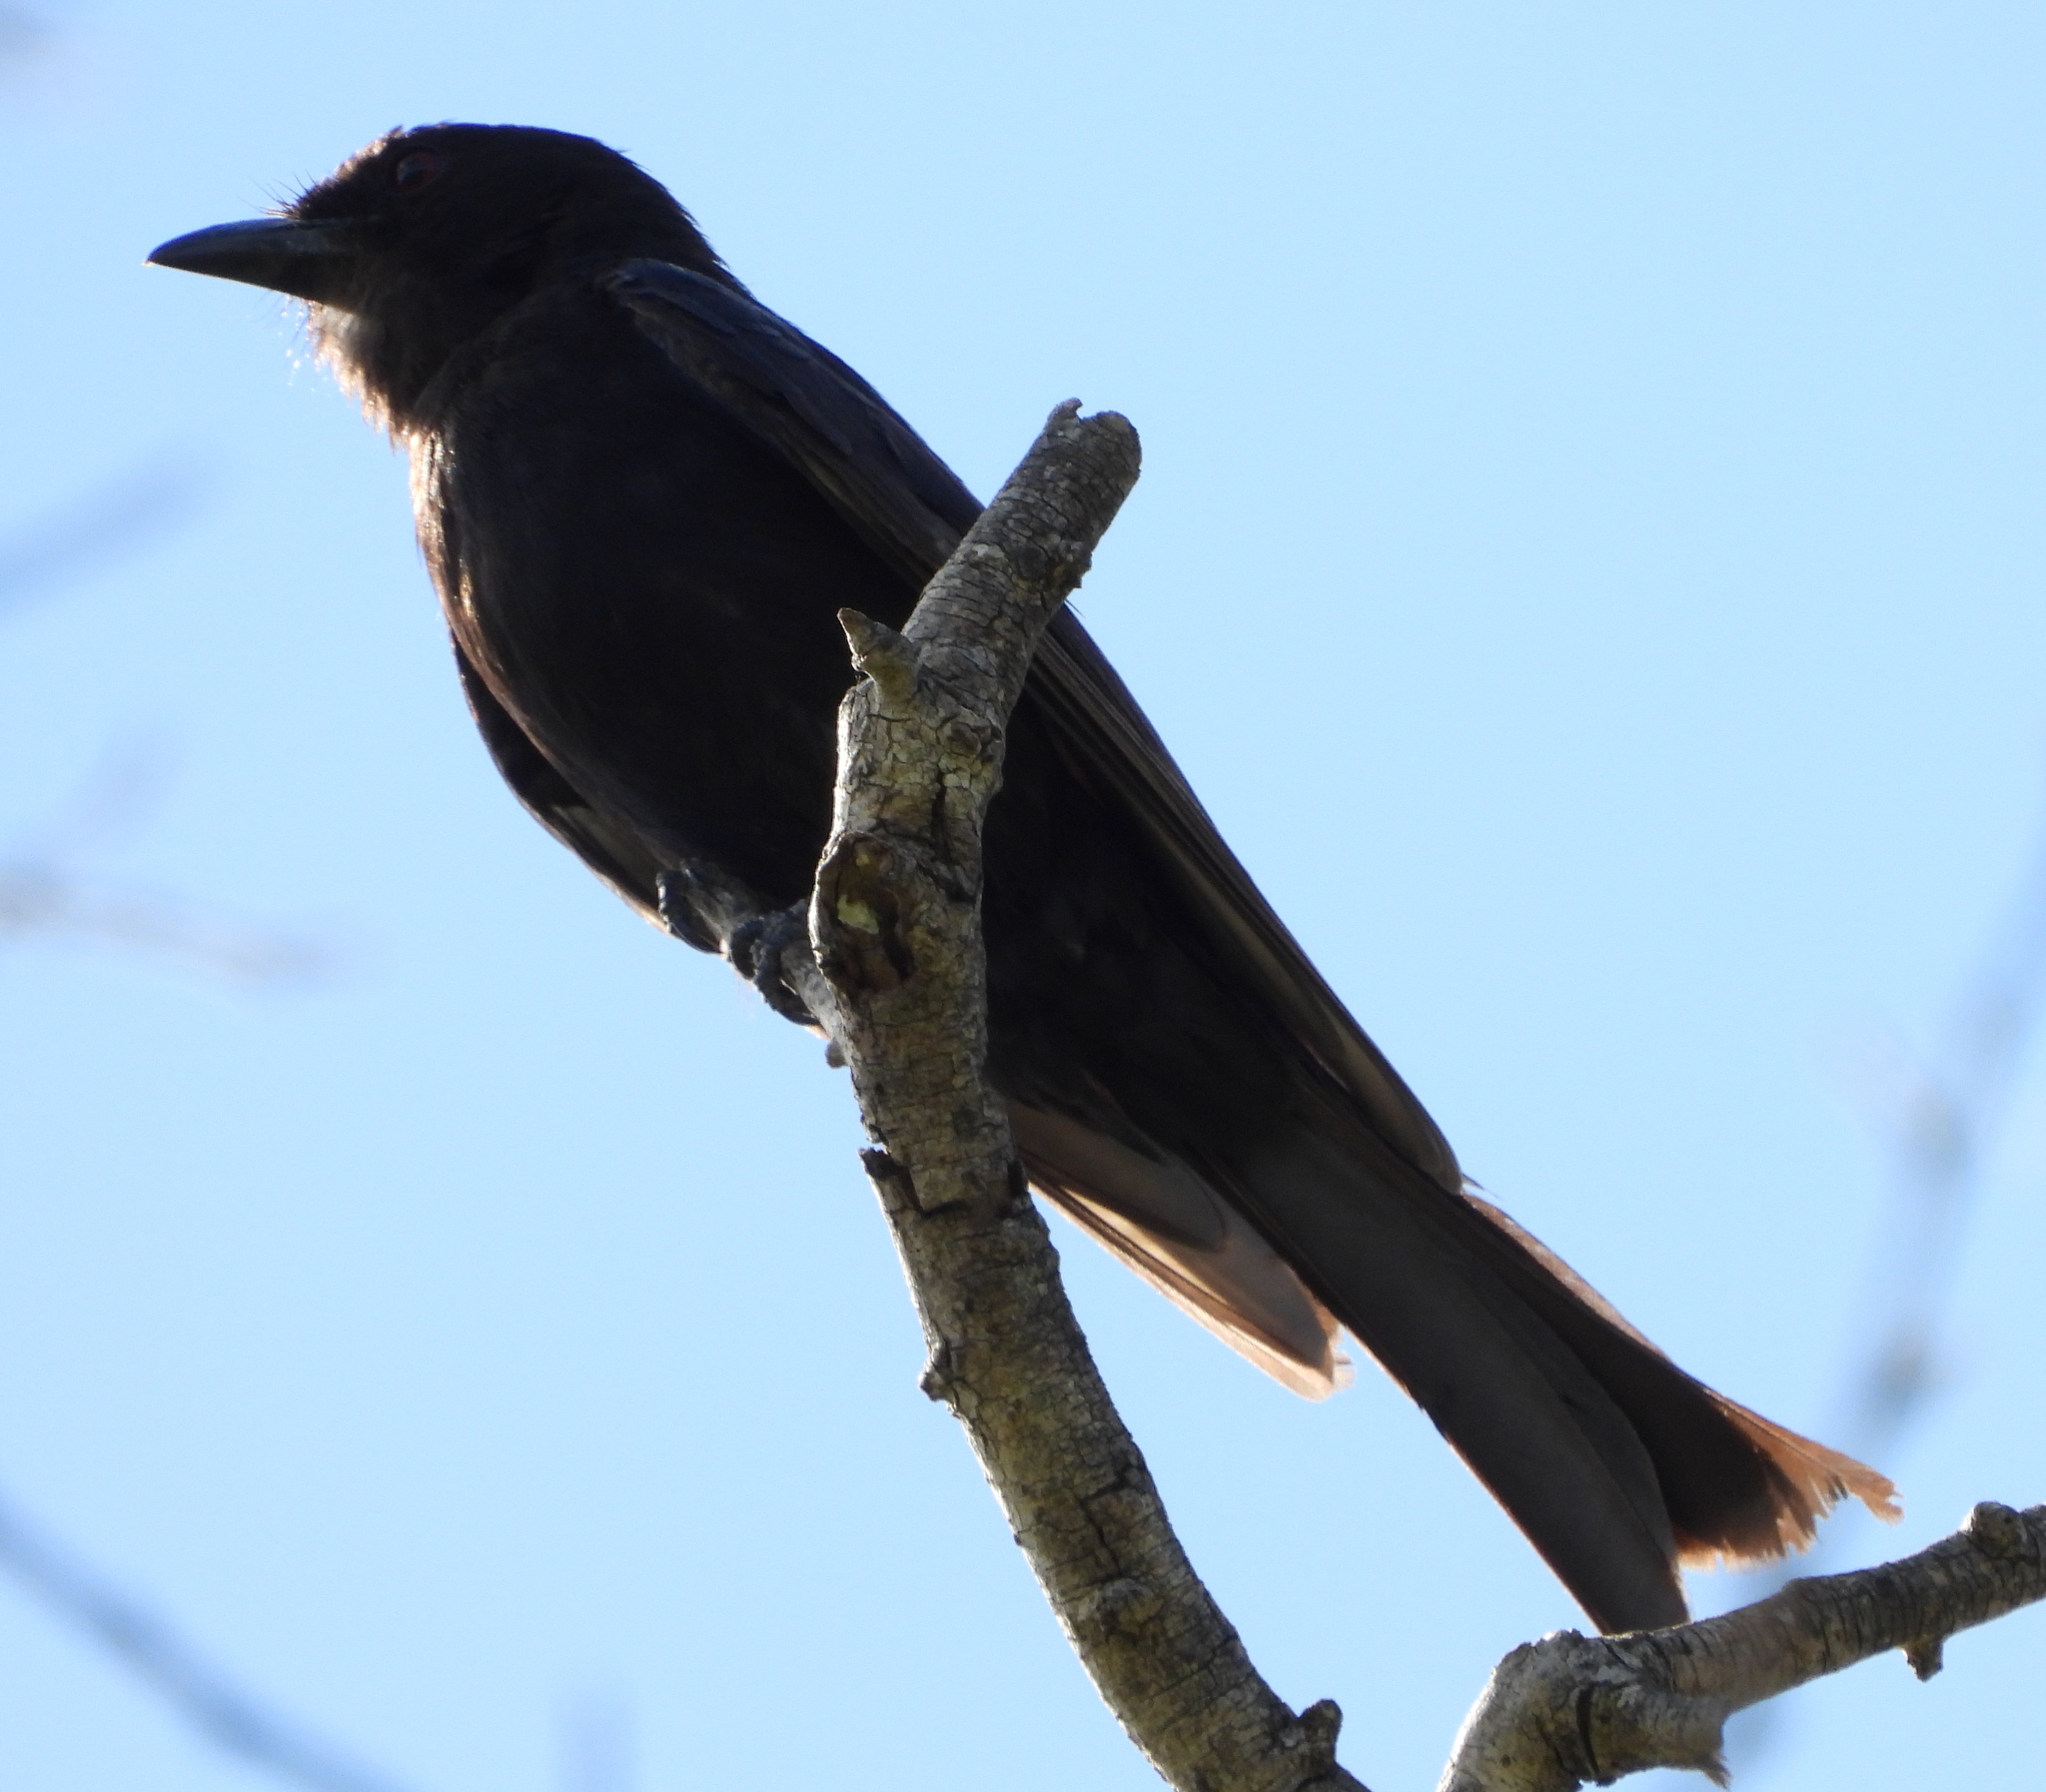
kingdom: Animalia
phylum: Chordata
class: Aves
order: Passeriformes
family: Dicruridae
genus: Dicrurus
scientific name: Dicrurus adsimilis
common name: Fork-tailed drongo
